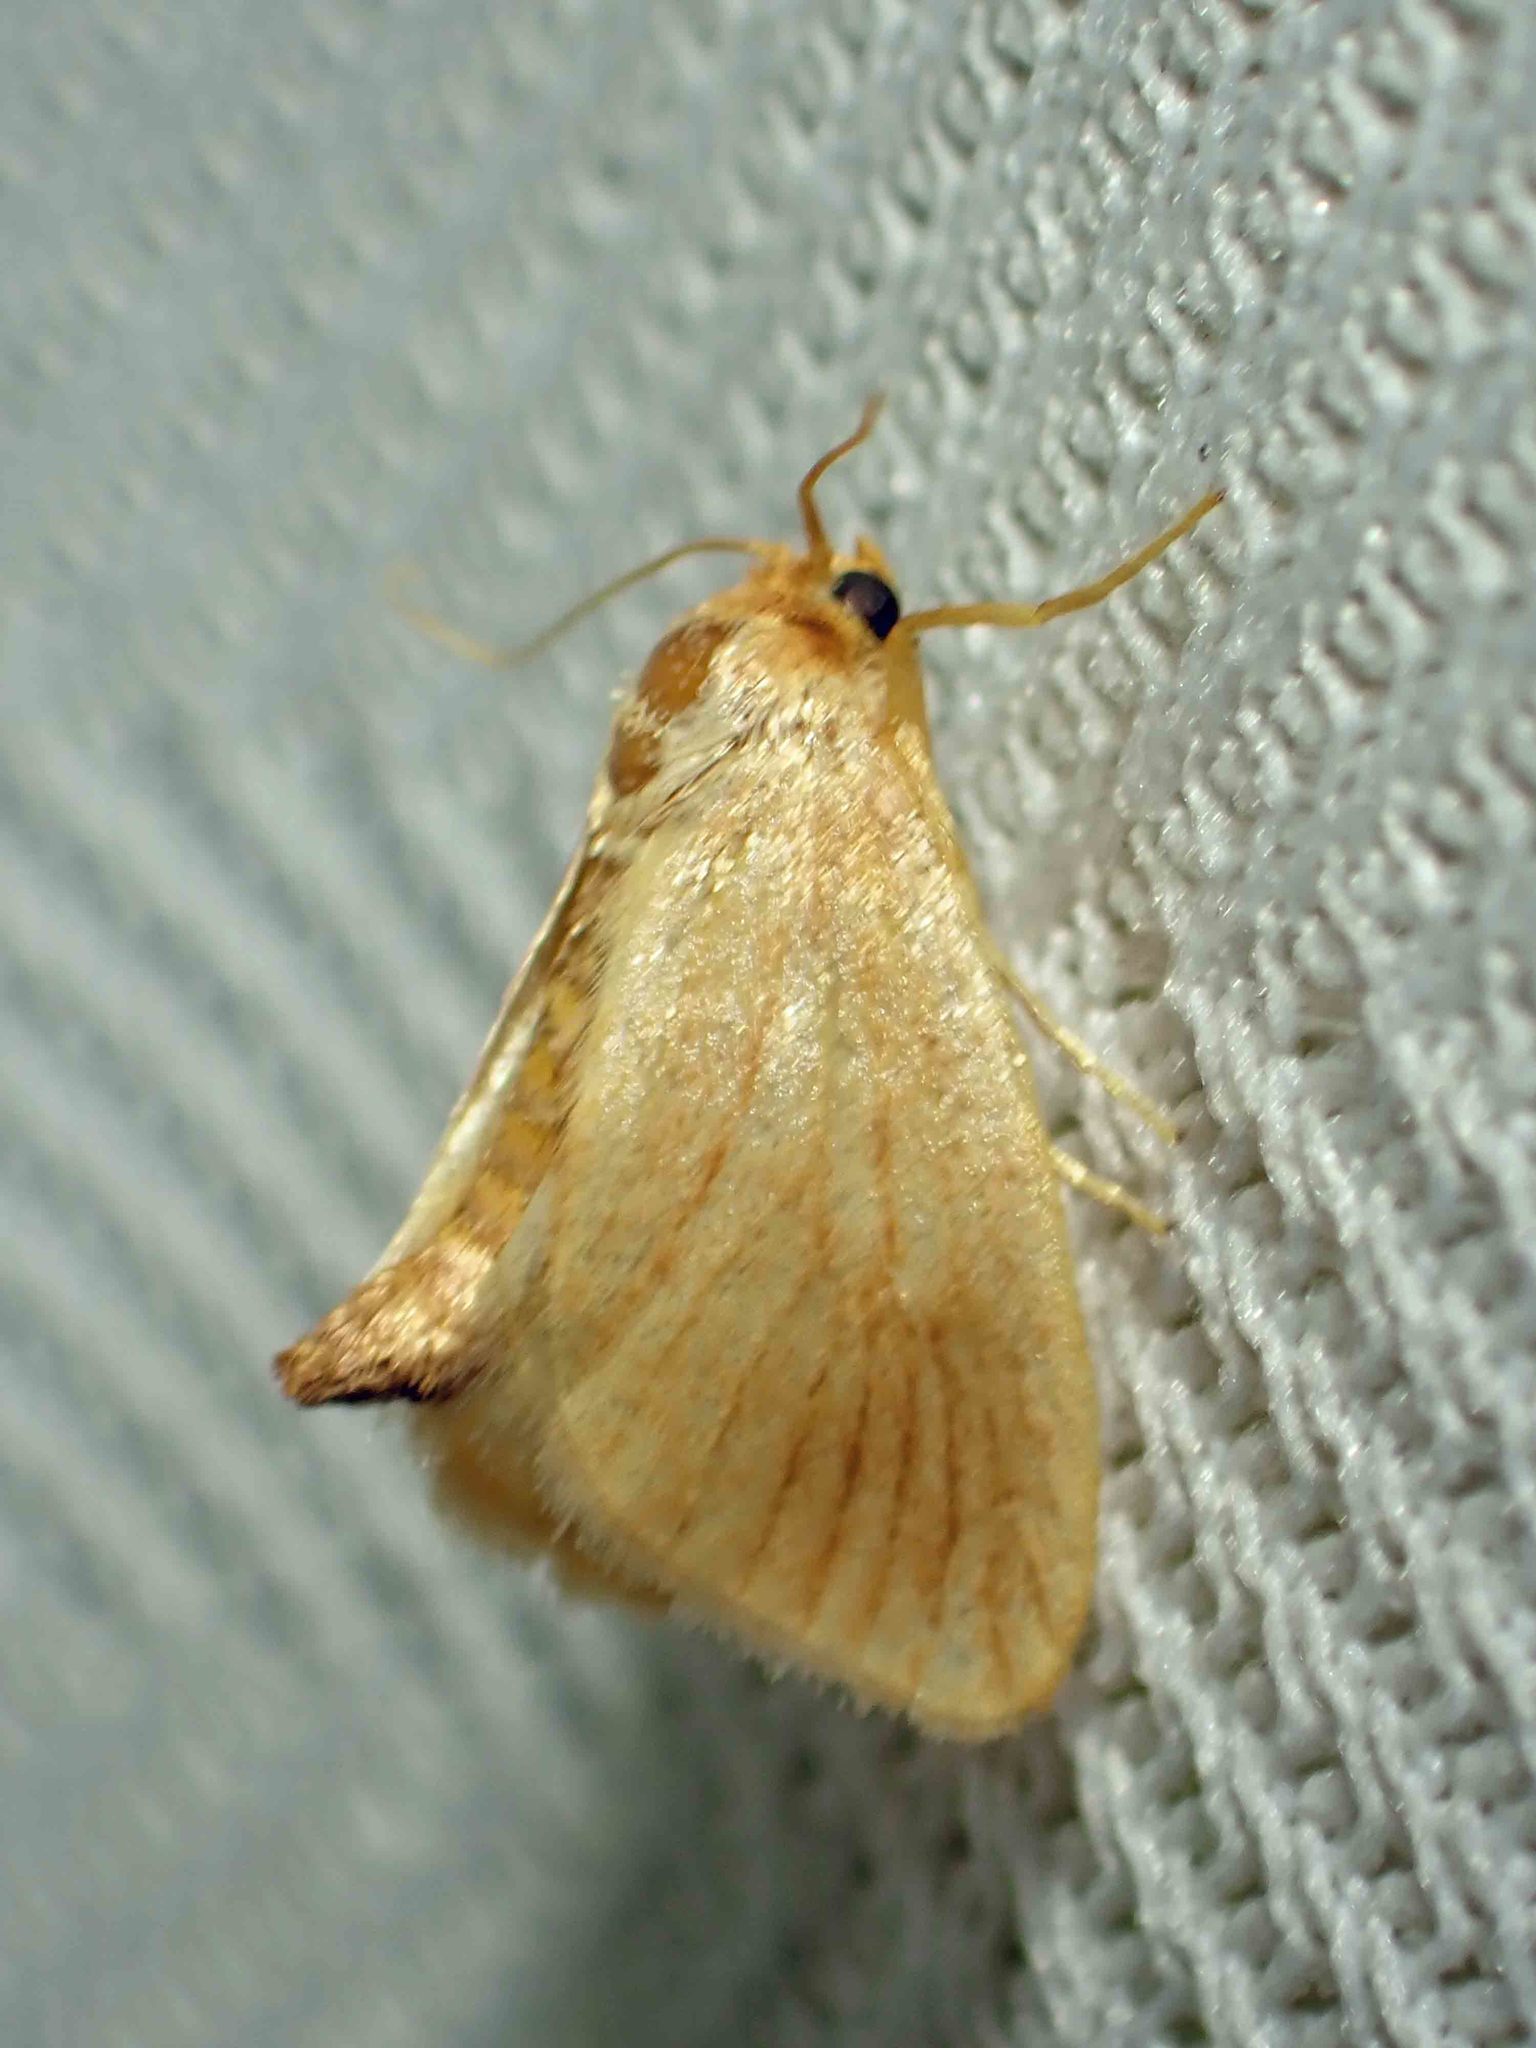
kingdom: Animalia
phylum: Arthropoda
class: Insecta
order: Lepidoptera
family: Limacodidae
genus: Tortricidia
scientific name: Tortricidia testacea
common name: Early button slug moth
